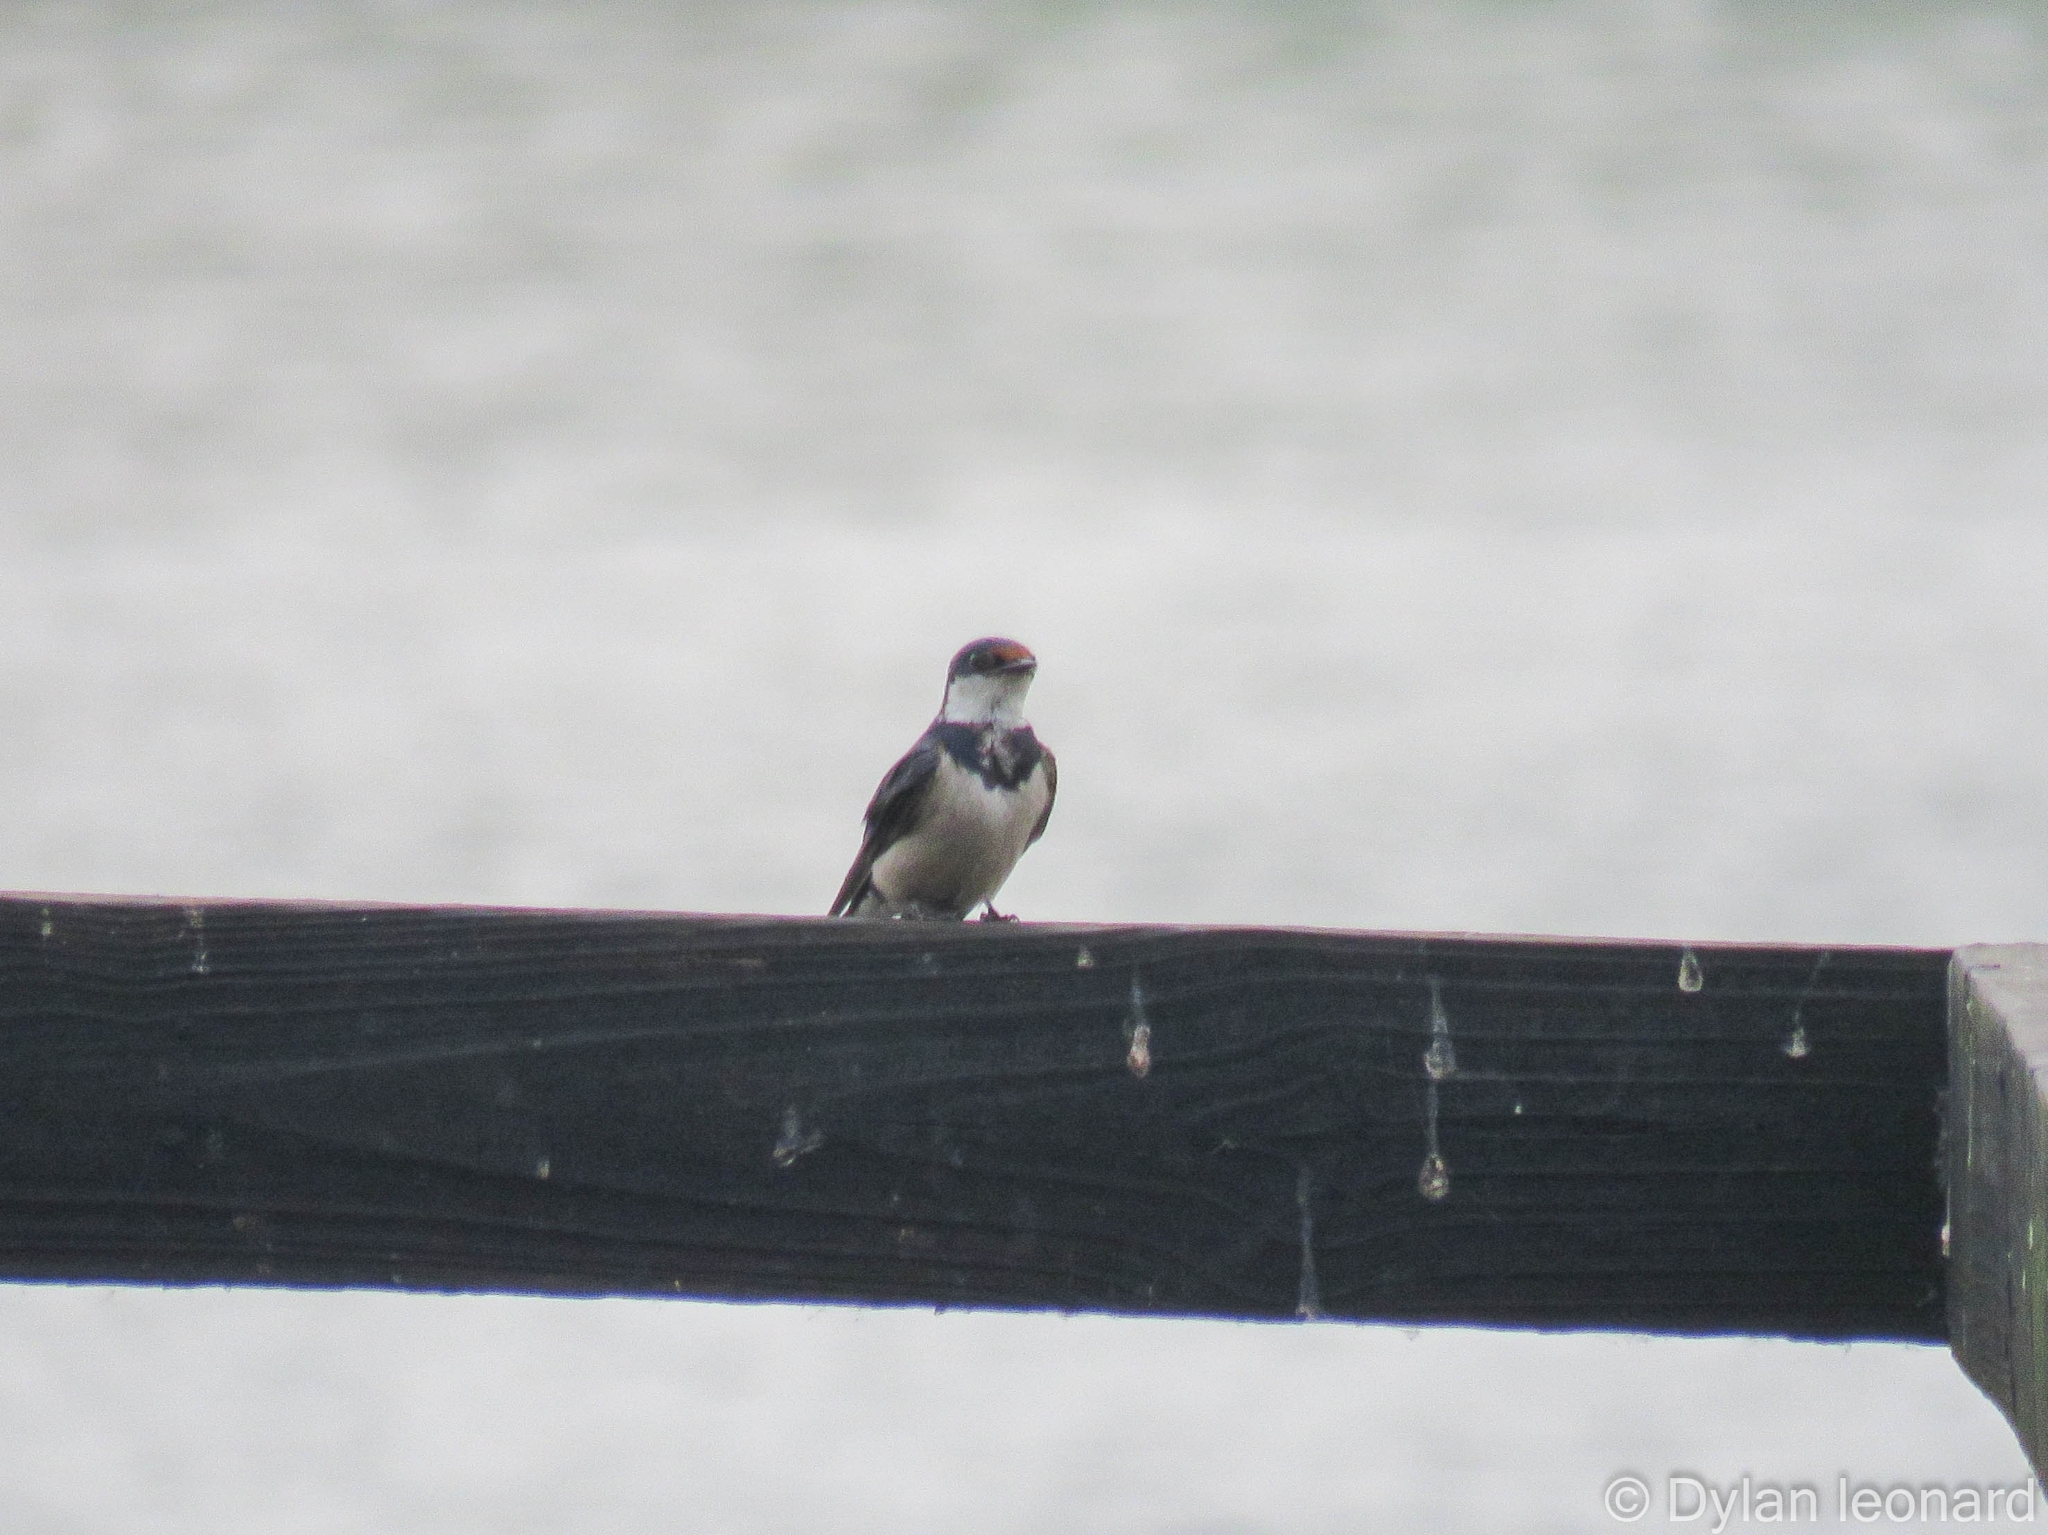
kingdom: Animalia
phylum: Chordata
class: Aves
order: Passeriformes
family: Hirundinidae
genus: Hirundo
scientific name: Hirundo albigularis
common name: White-throated swallow
